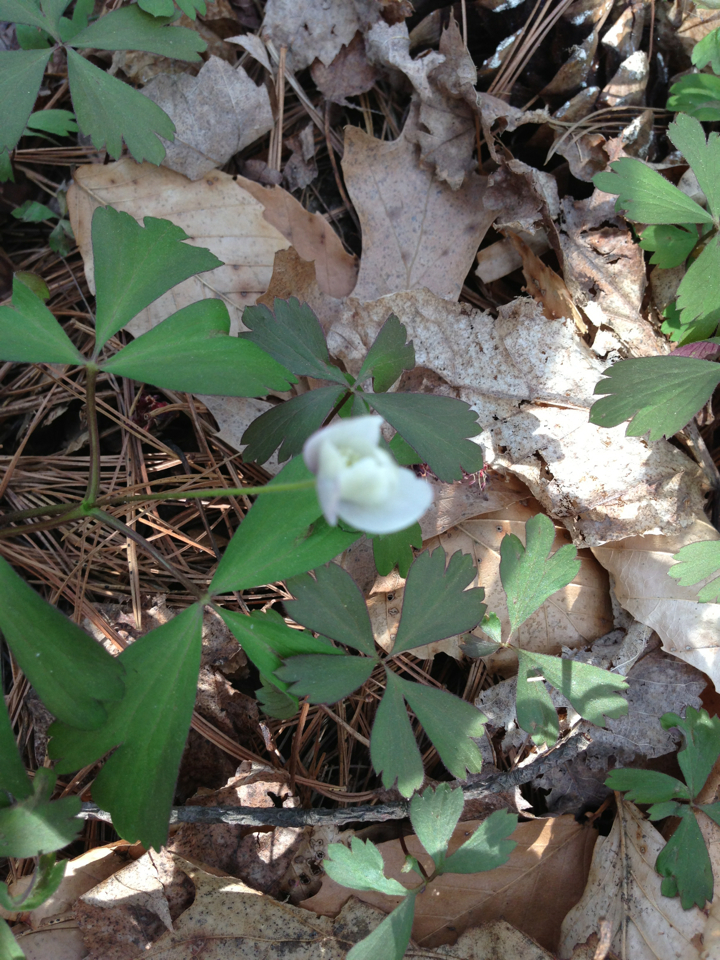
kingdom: Plantae
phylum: Tracheophyta
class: Magnoliopsida
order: Ranunculales
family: Ranunculaceae
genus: Anemone
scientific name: Anemone quinquefolia
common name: Wood anemone
